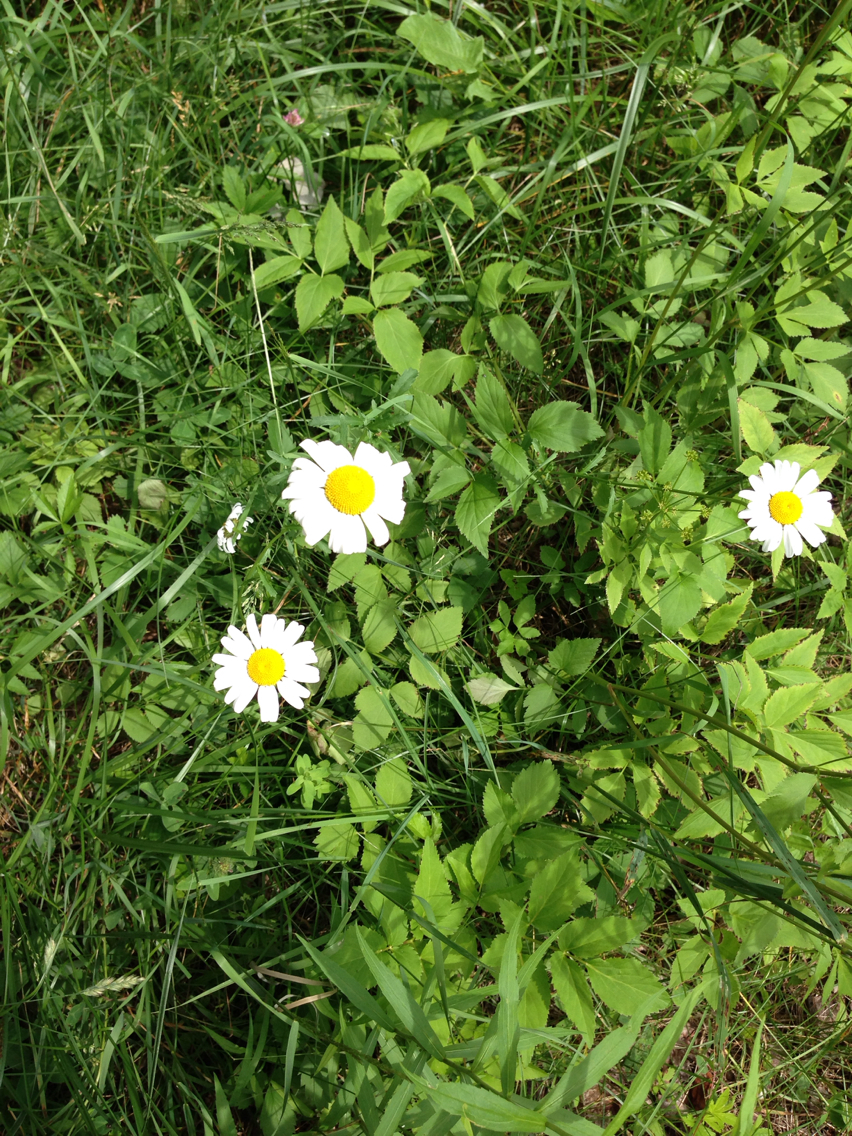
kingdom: Plantae
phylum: Tracheophyta
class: Magnoliopsida
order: Asterales
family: Asteraceae
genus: Leucanthemum
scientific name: Leucanthemum vulgare
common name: Oxeye daisy
